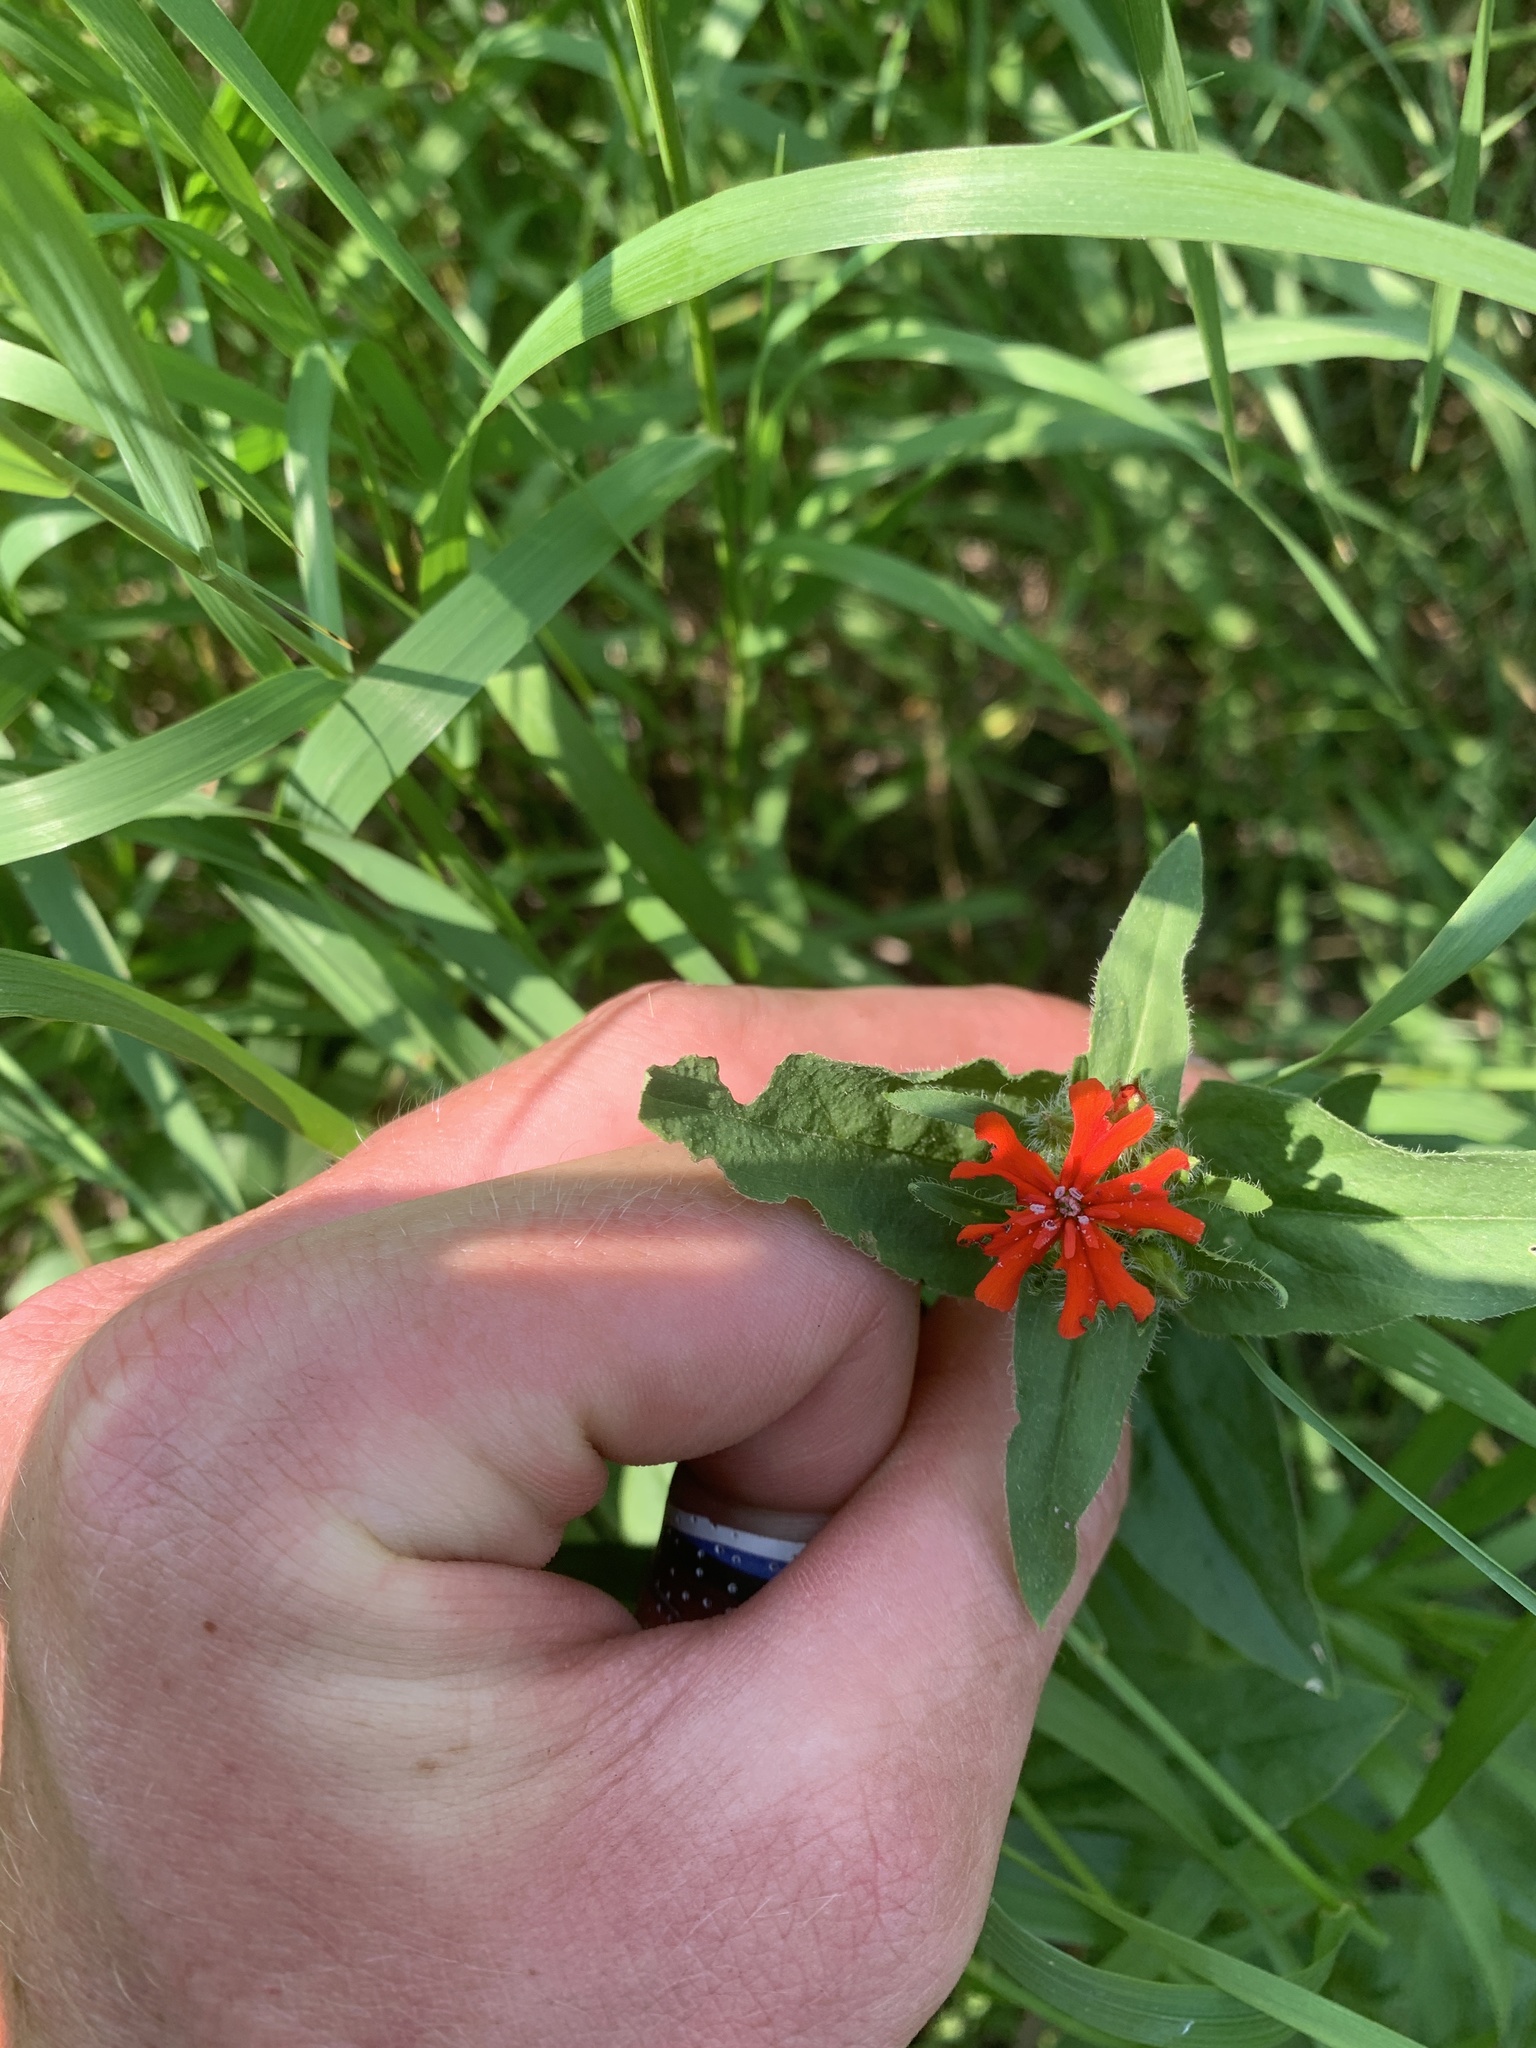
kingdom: Plantae
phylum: Tracheophyta
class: Magnoliopsida
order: Caryophyllales
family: Caryophyllaceae
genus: Silene
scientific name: Silene chalcedonica
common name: Maltese-cross
